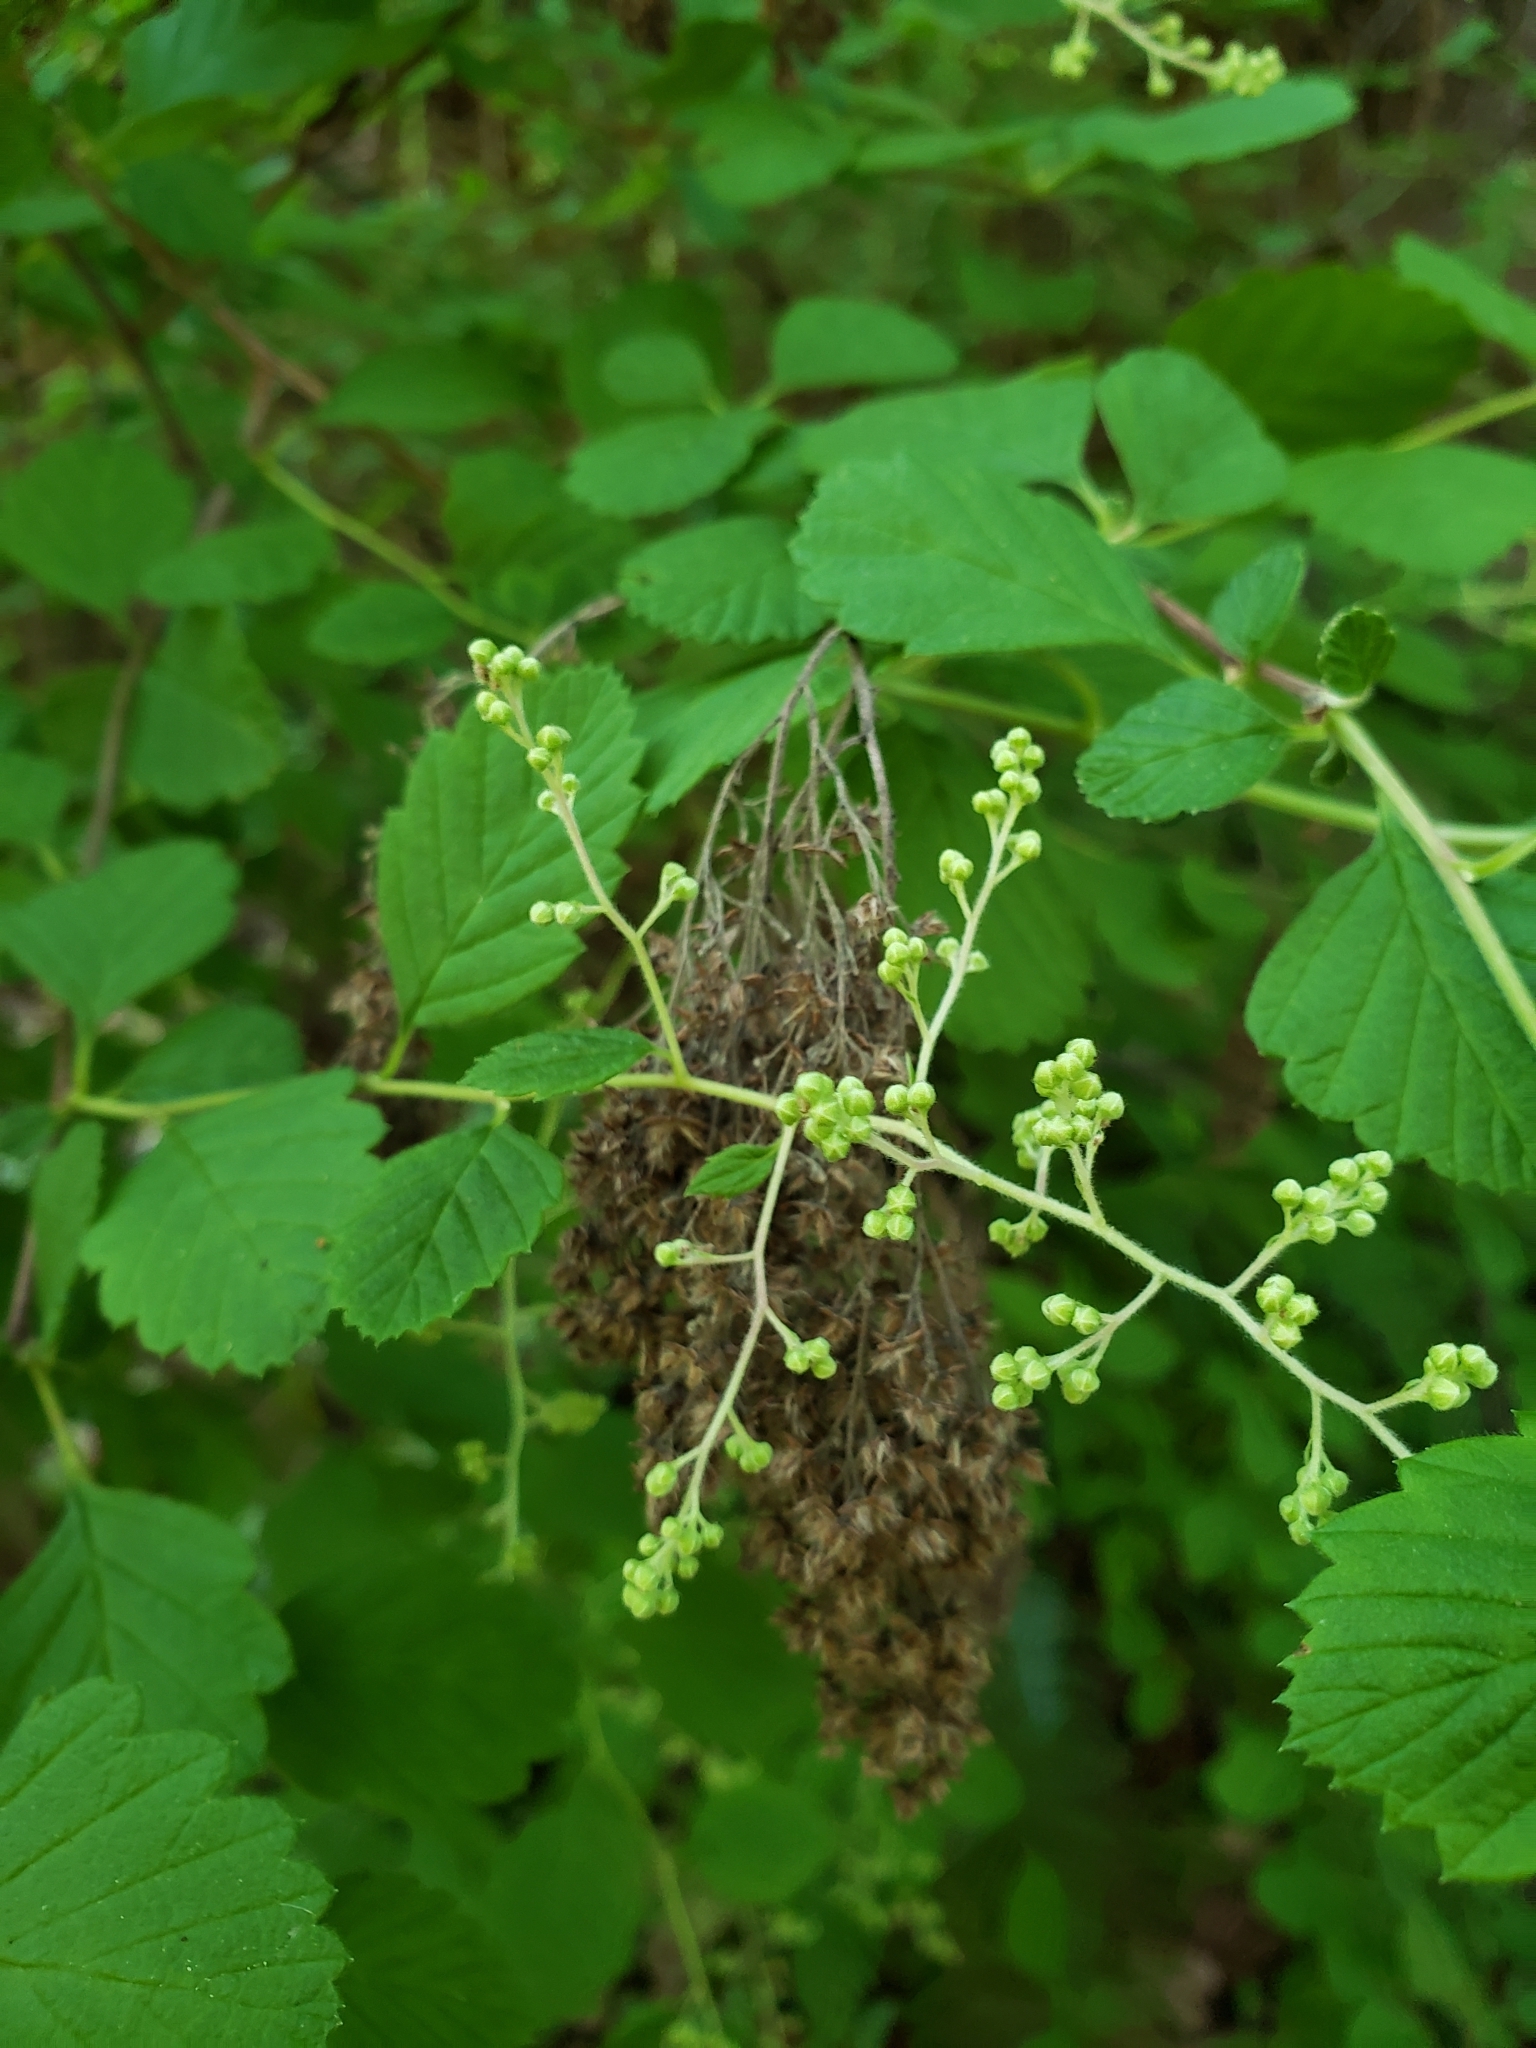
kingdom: Plantae
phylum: Tracheophyta
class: Magnoliopsida
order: Rosales
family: Rosaceae
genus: Holodiscus
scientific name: Holodiscus discolor
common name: Oceanspray
